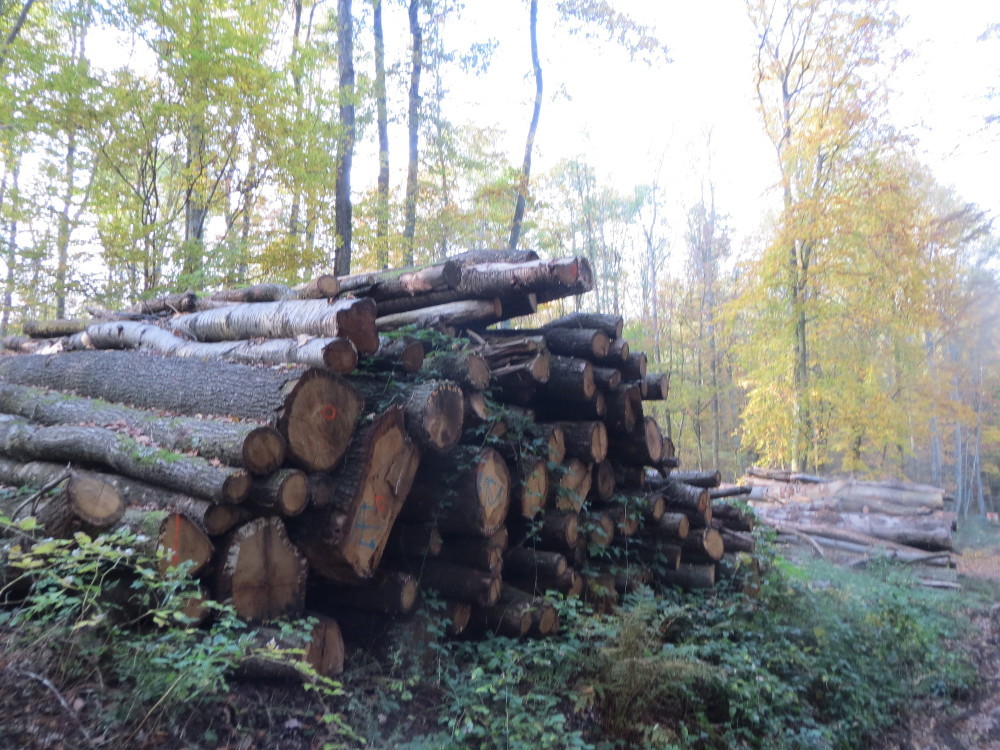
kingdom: Plantae
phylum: Tracheophyta
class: Magnoliopsida
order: Fagales
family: Fagaceae
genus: Fagus
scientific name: Fagus sylvatica
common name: Beech
